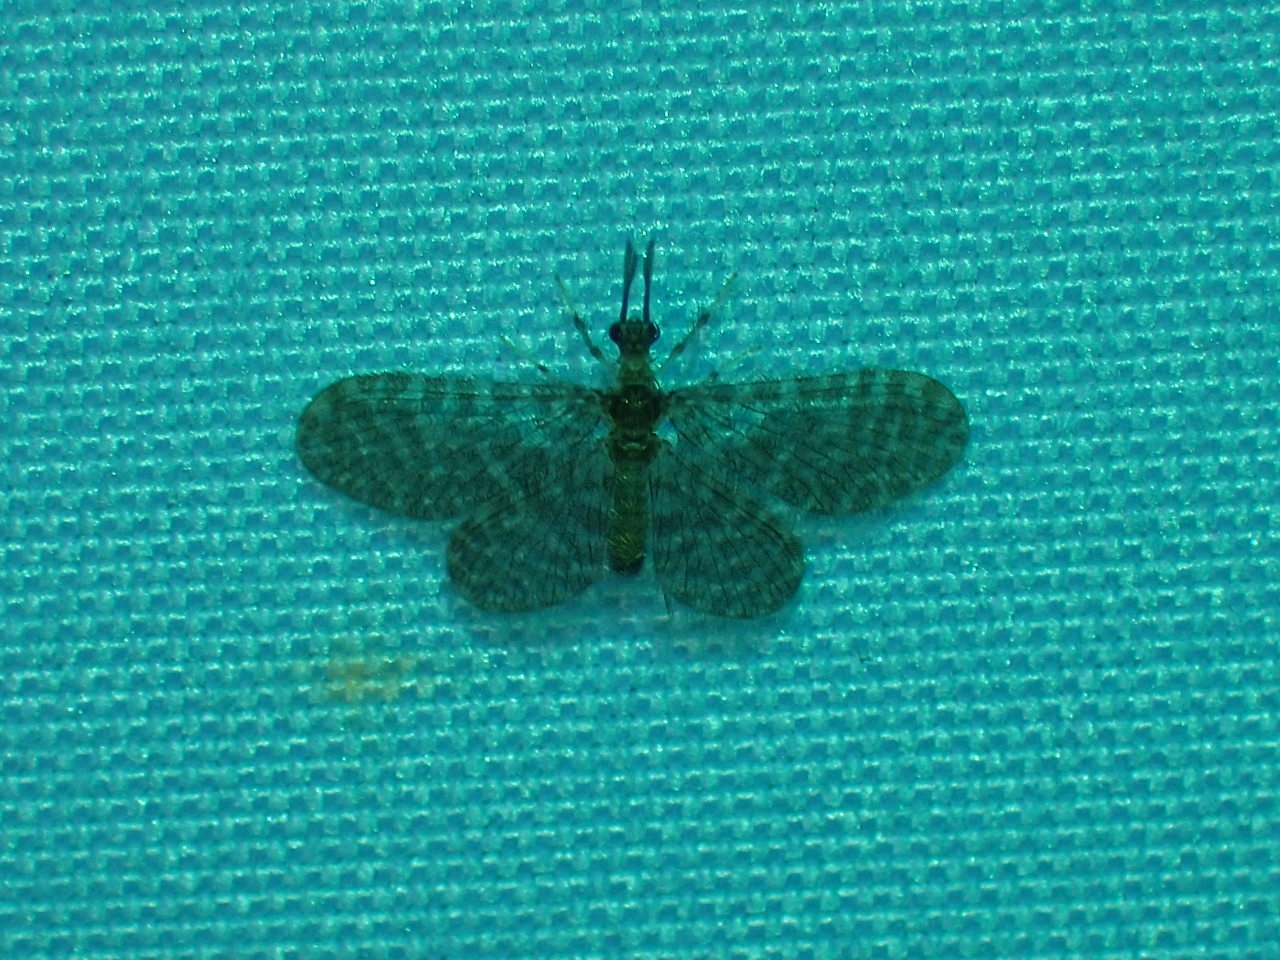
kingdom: Animalia
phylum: Arthropoda
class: Insecta
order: Neuroptera
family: Dilaridae
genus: Nallachius
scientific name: Nallachius americanus
